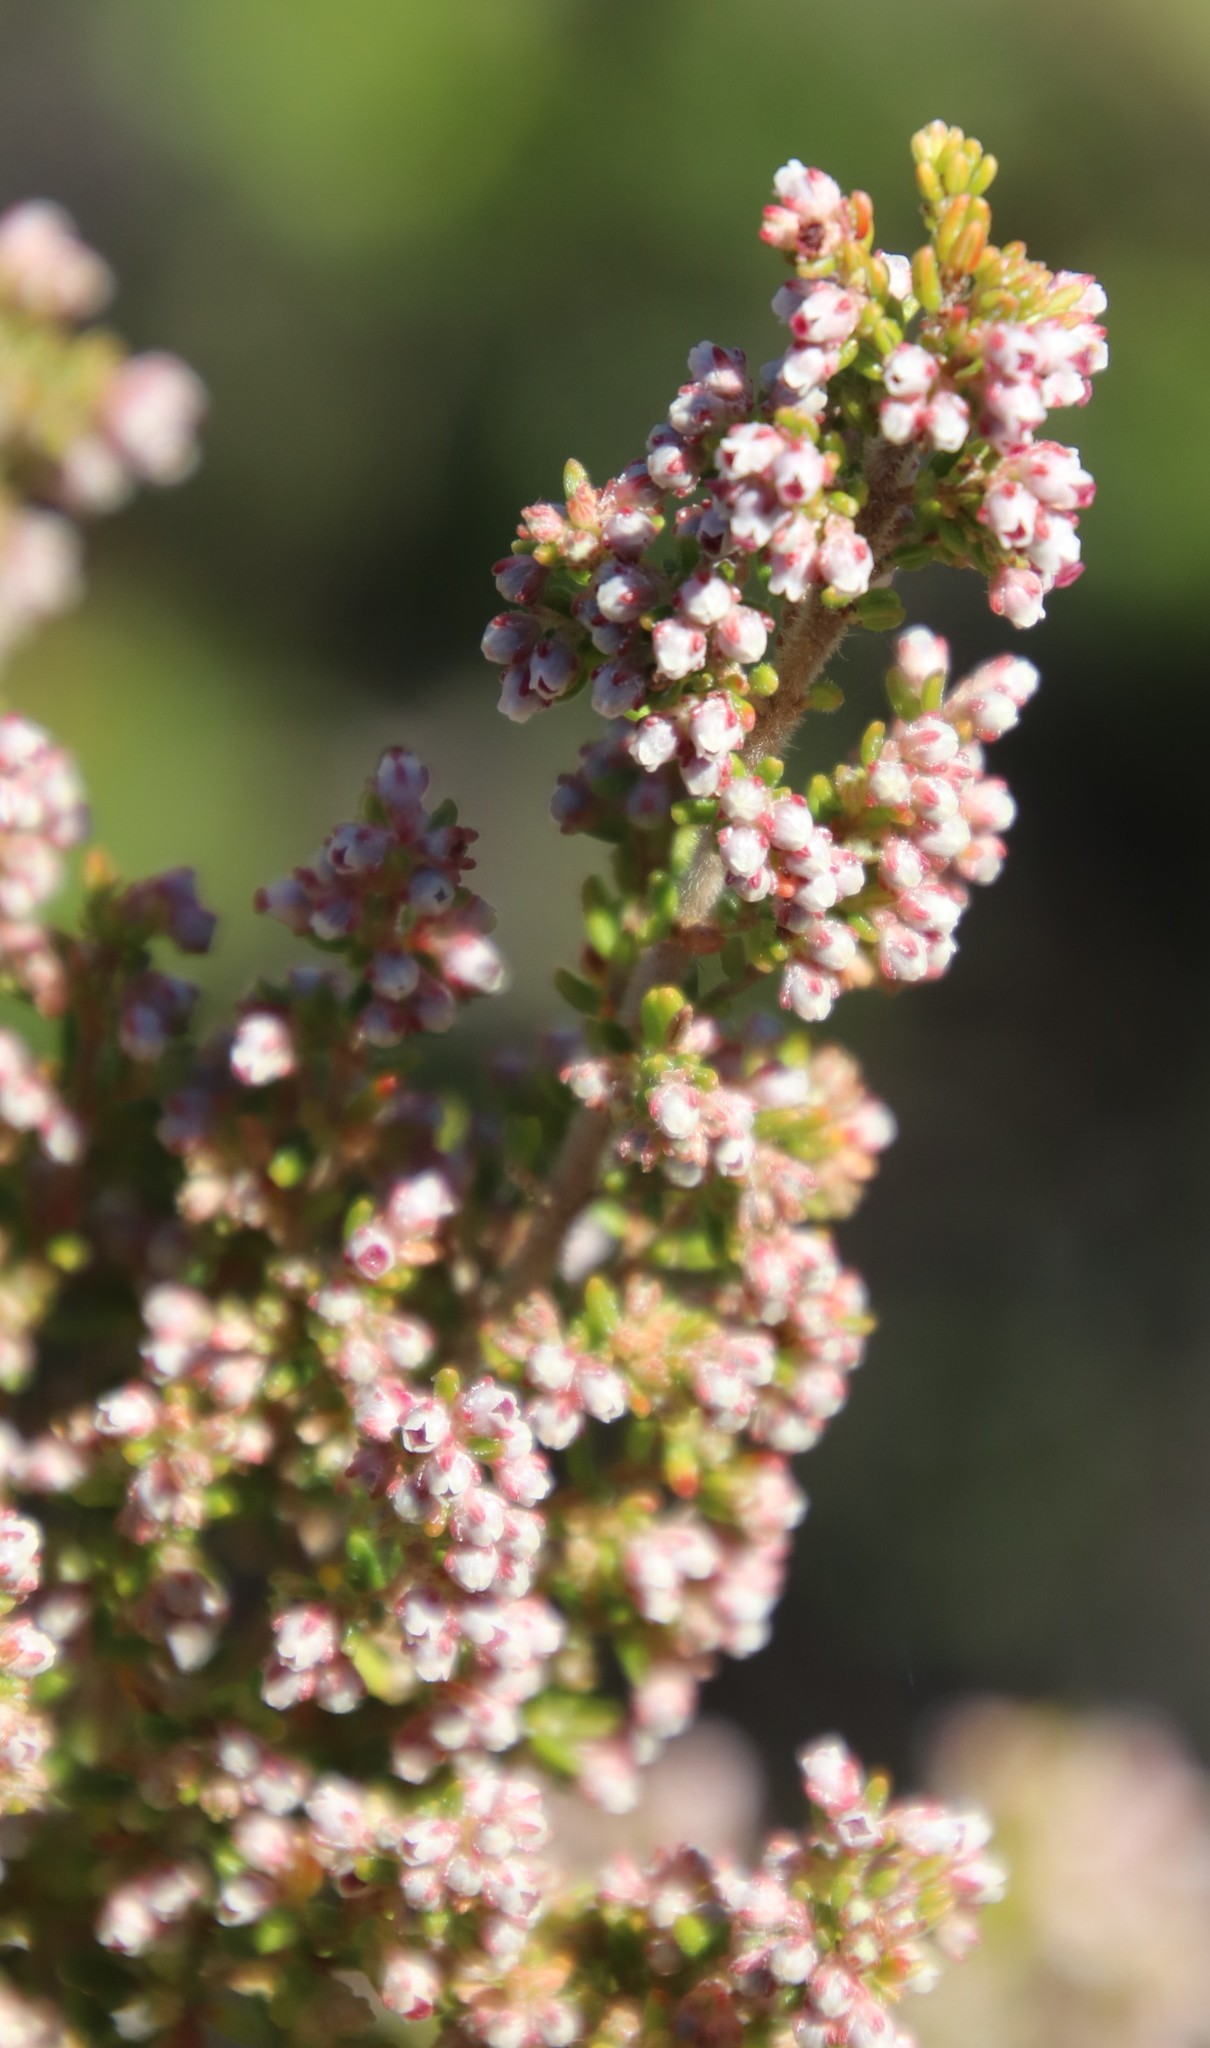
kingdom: Plantae
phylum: Tracheophyta
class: Magnoliopsida
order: Ericales
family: Ericaceae
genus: Erica
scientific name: Erica hispidula
